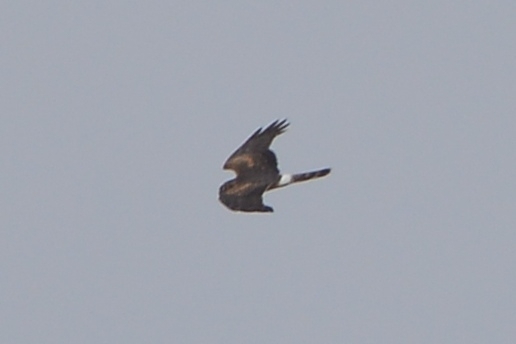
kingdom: Animalia
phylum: Chordata
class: Aves
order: Accipitriformes
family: Accipitridae
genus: Circus
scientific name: Circus cyaneus
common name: Hen harrier
